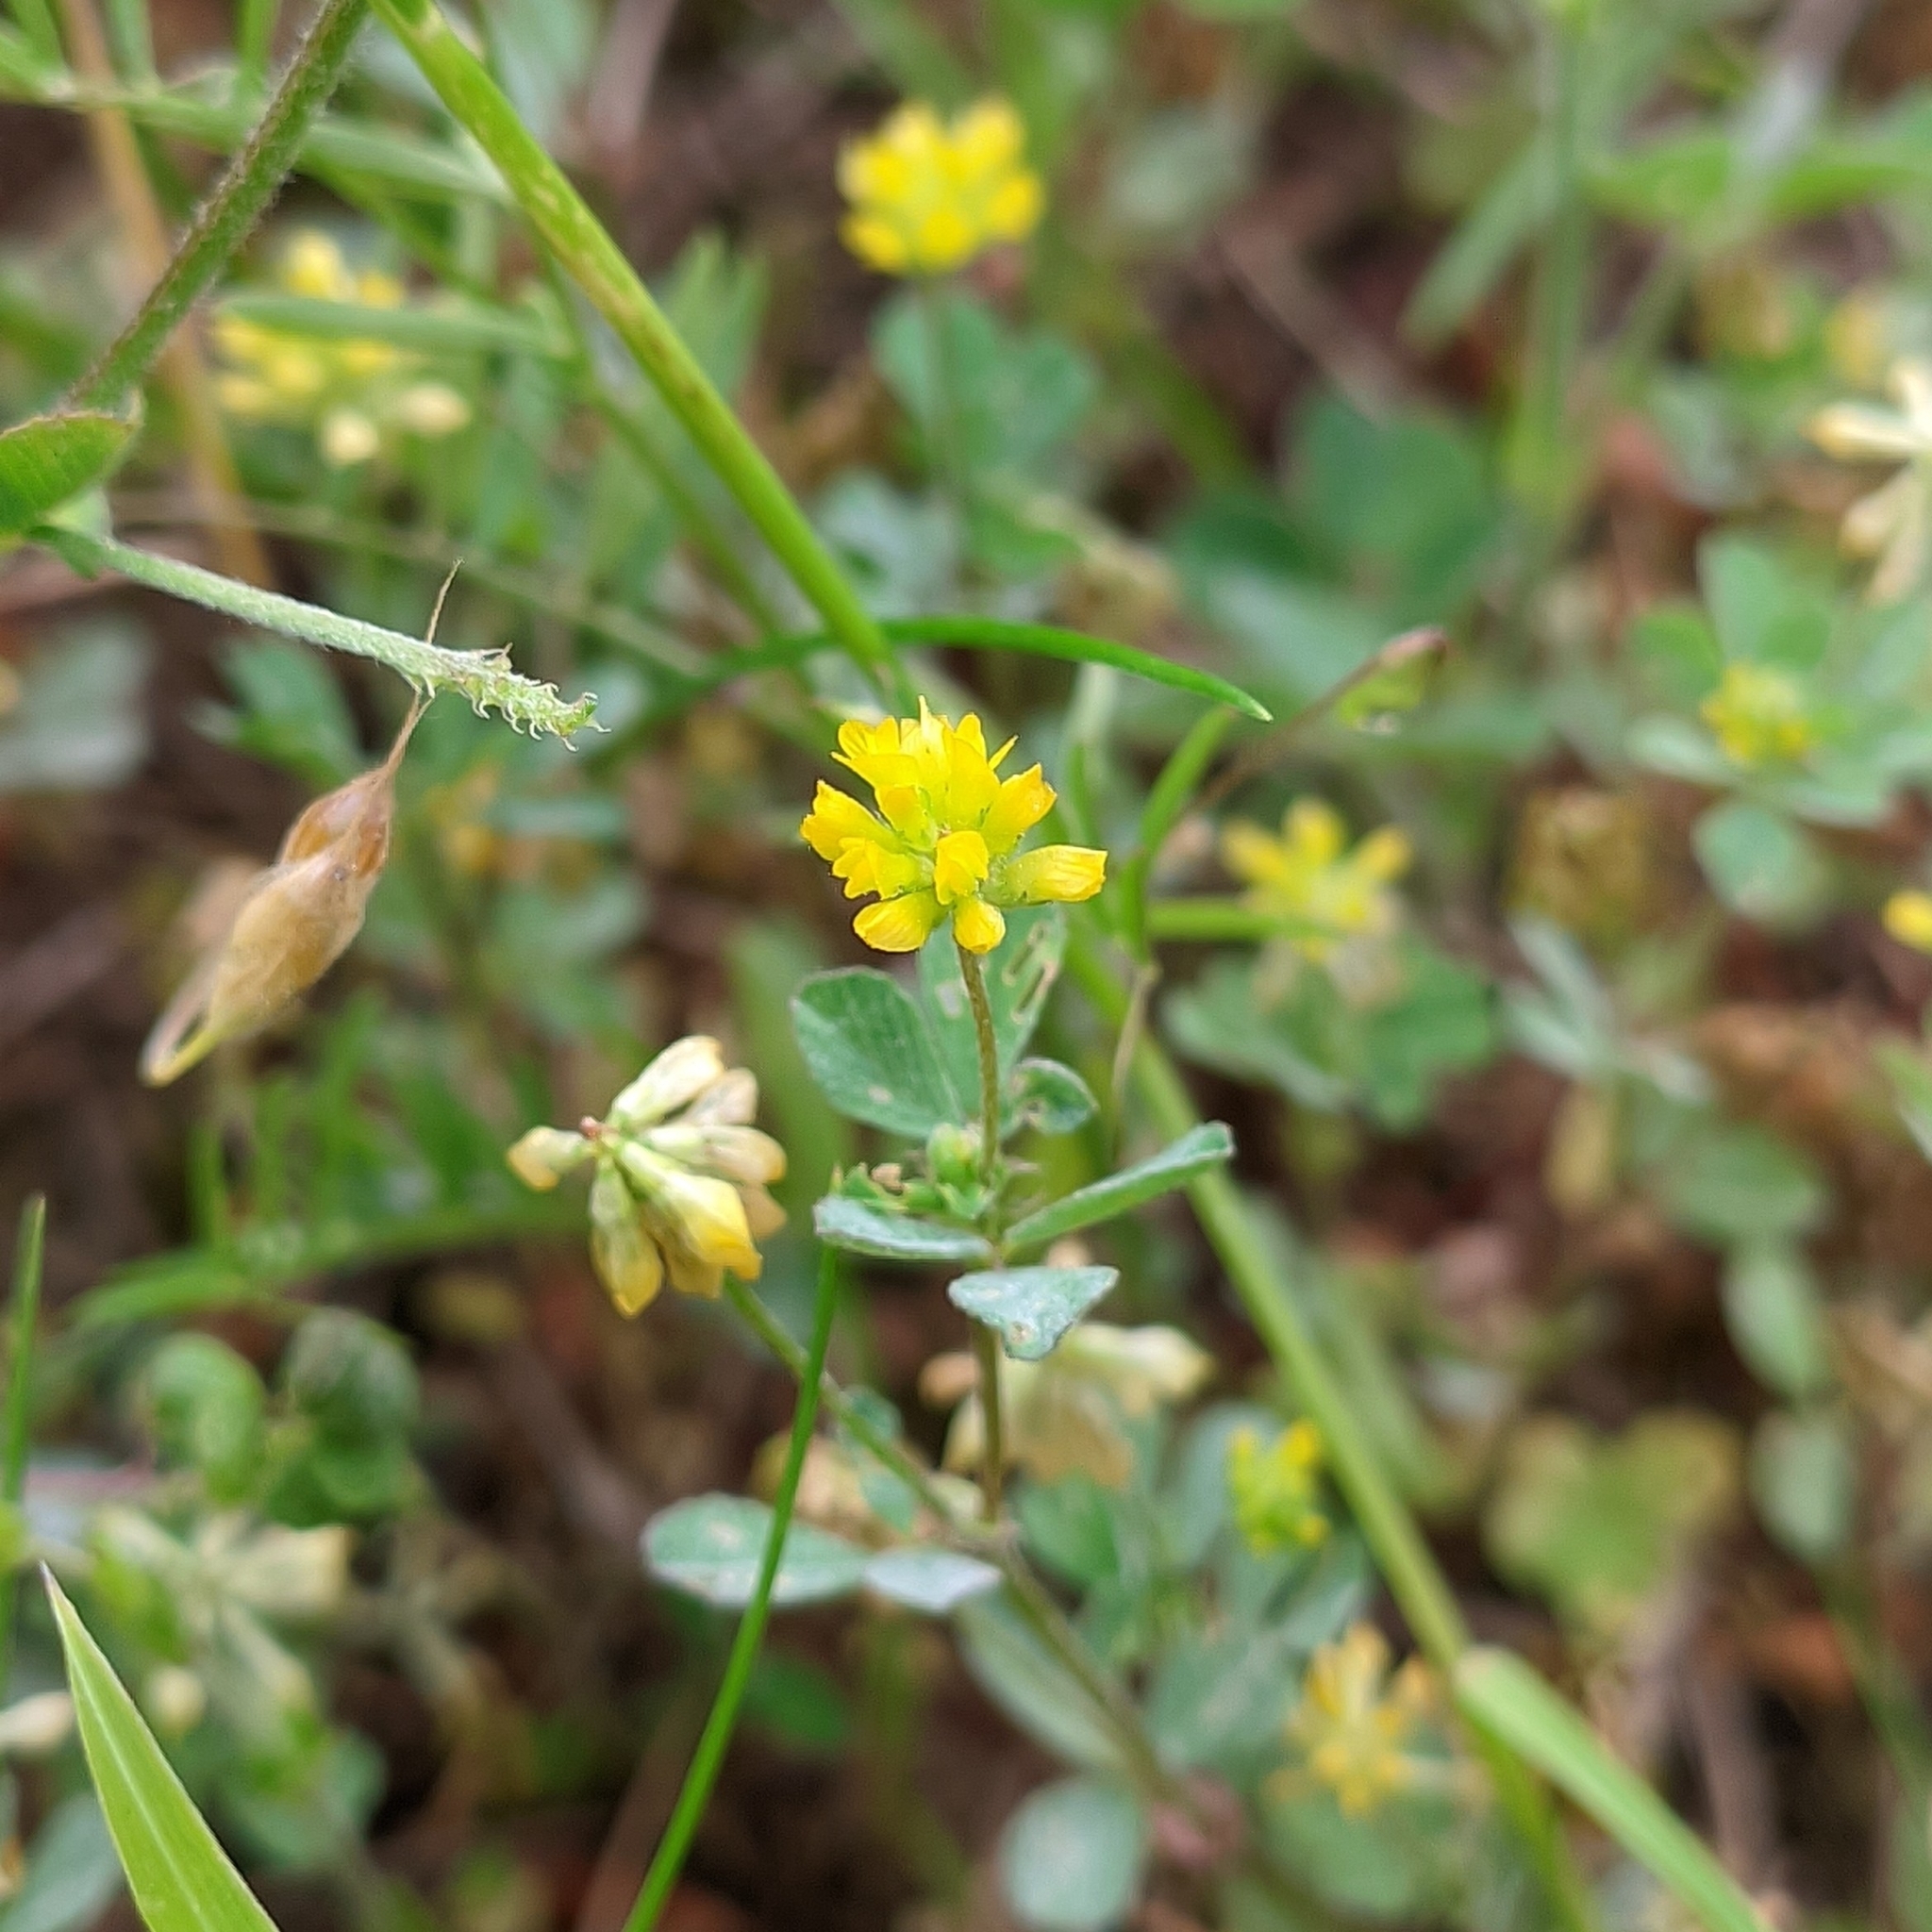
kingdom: Plantae
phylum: Tracheophyta
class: Magnoliopsida
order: Fabales
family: Fabaceae
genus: Trifolium
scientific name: Trifolium dubium
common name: Suckling clover
